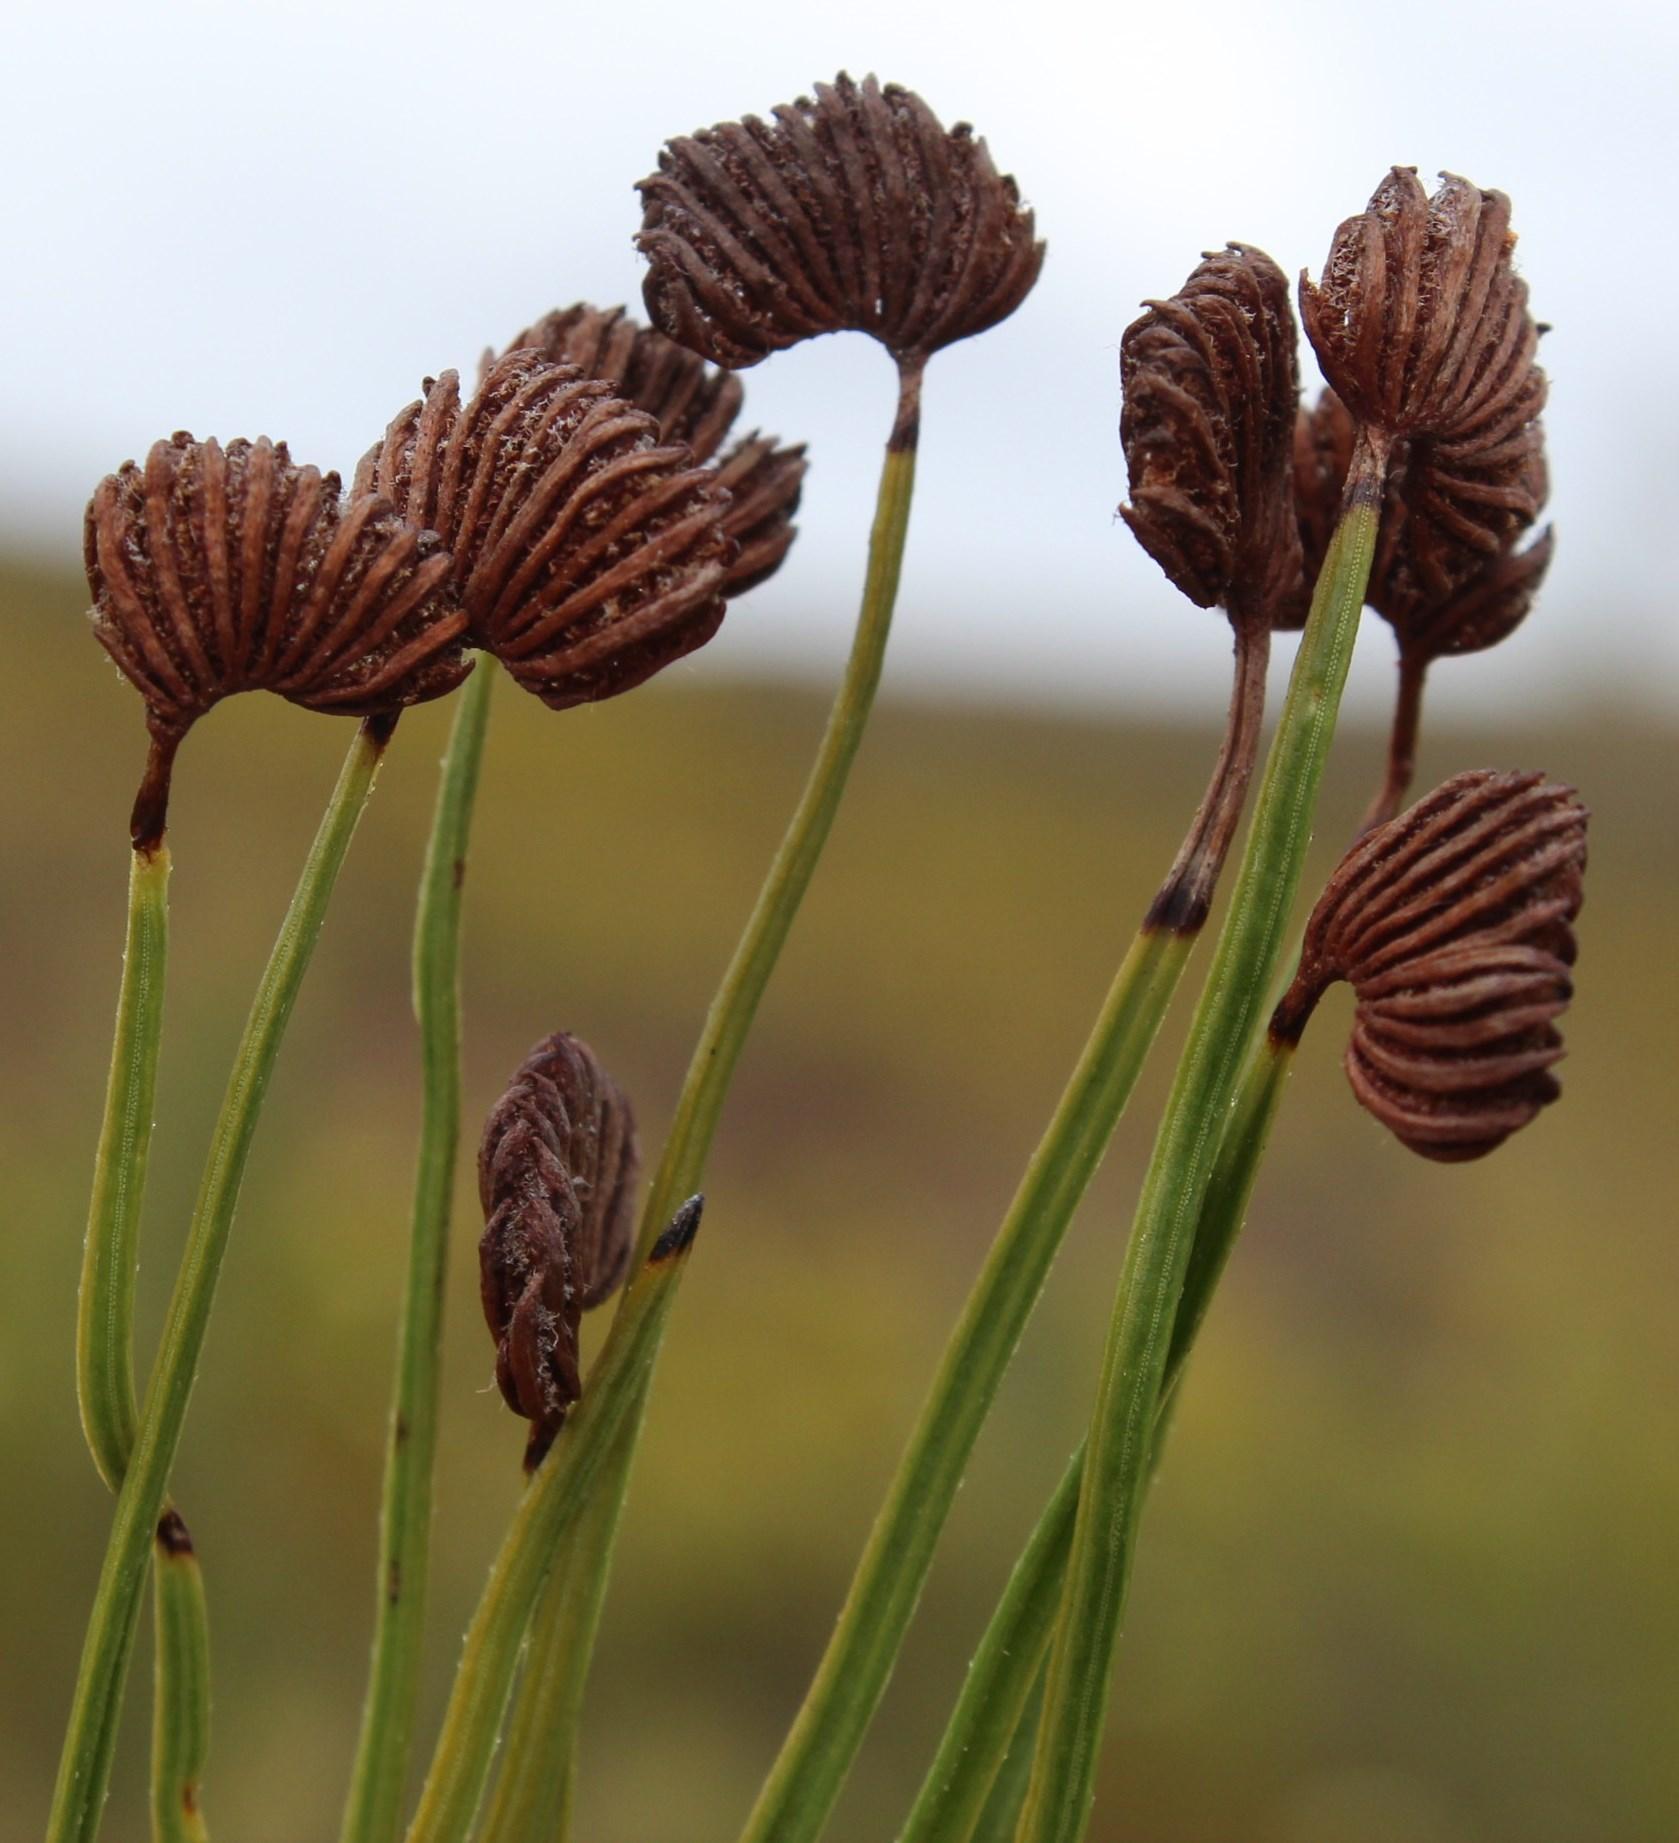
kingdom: Plantae
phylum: Tracheophyta
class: Polypodiopsida
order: Schizaeales
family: Schizaeaceae
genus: Schizaea
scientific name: Schizaea pectinata
